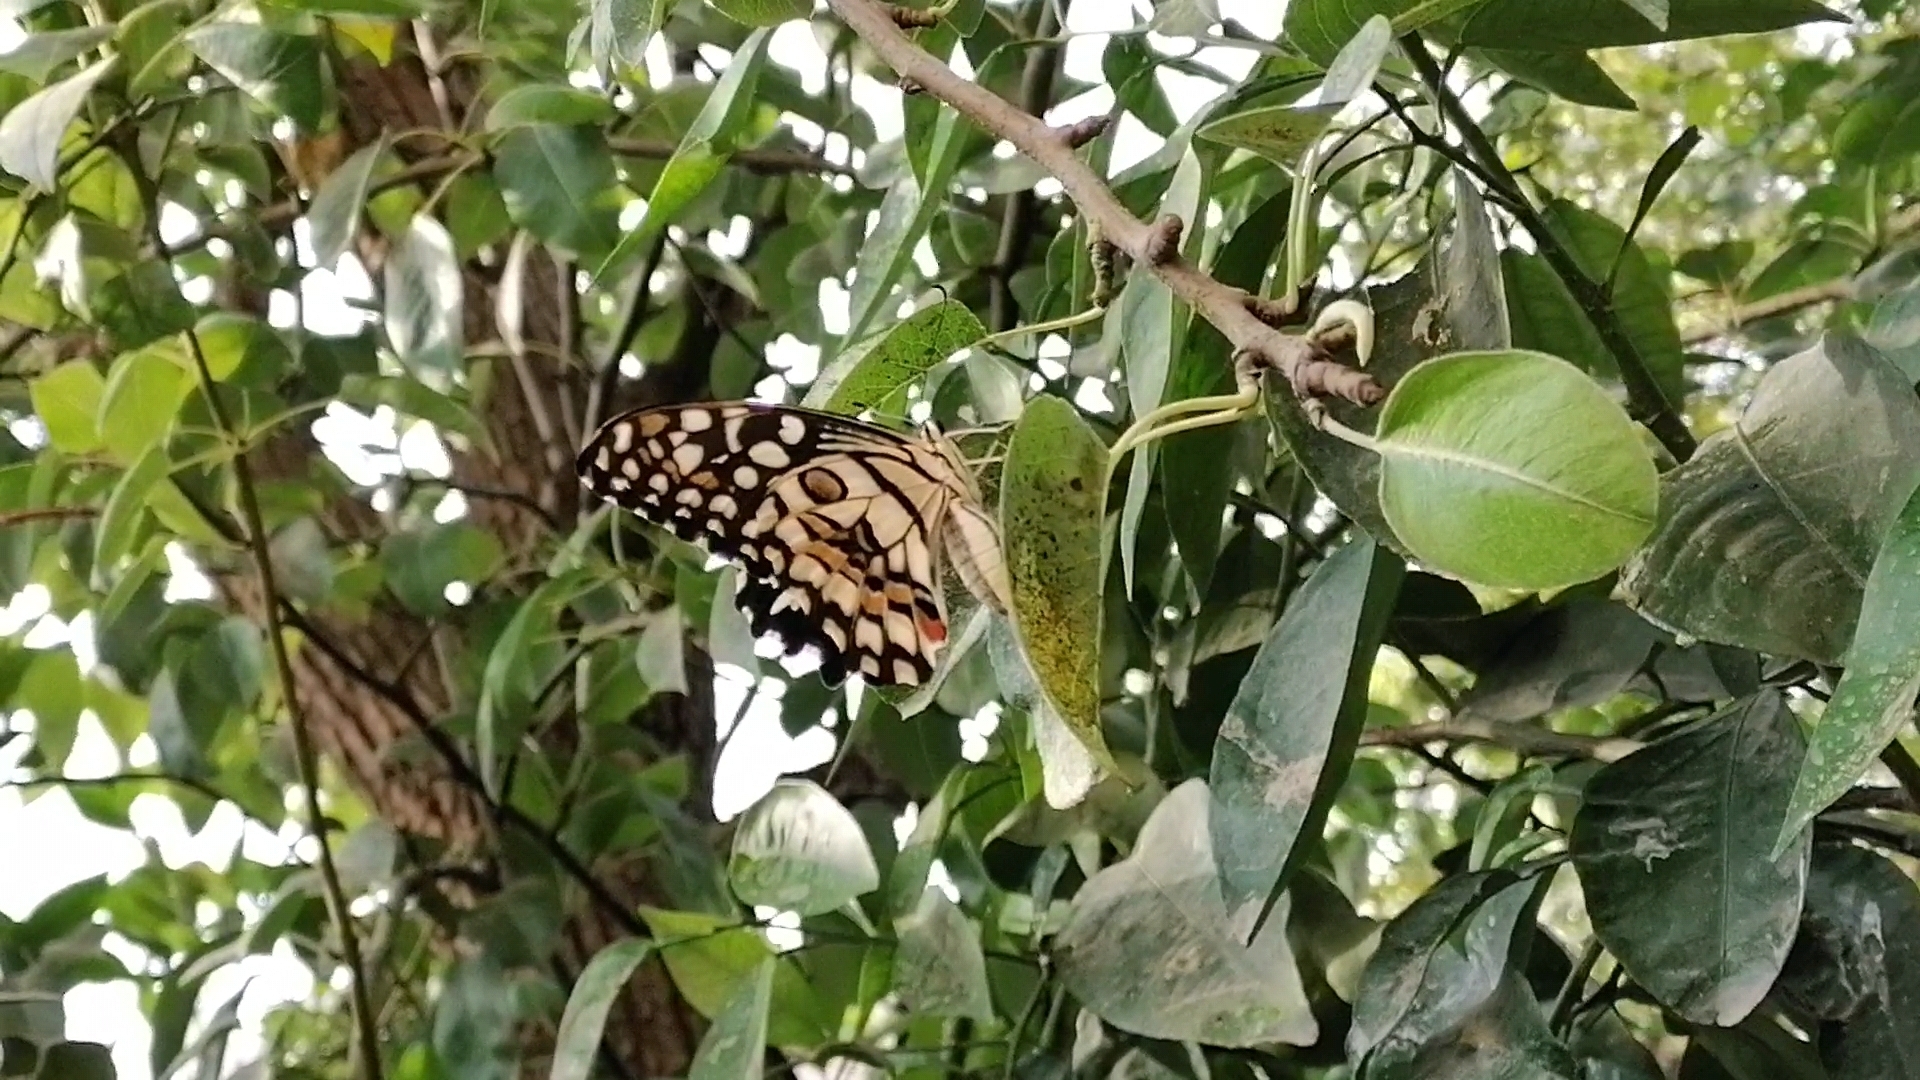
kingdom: Animalia
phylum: Arthropoda
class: Insecta
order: Lepidoptera
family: Papilionidae
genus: Papilio
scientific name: Papilio demoleus
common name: Lime butterfly
